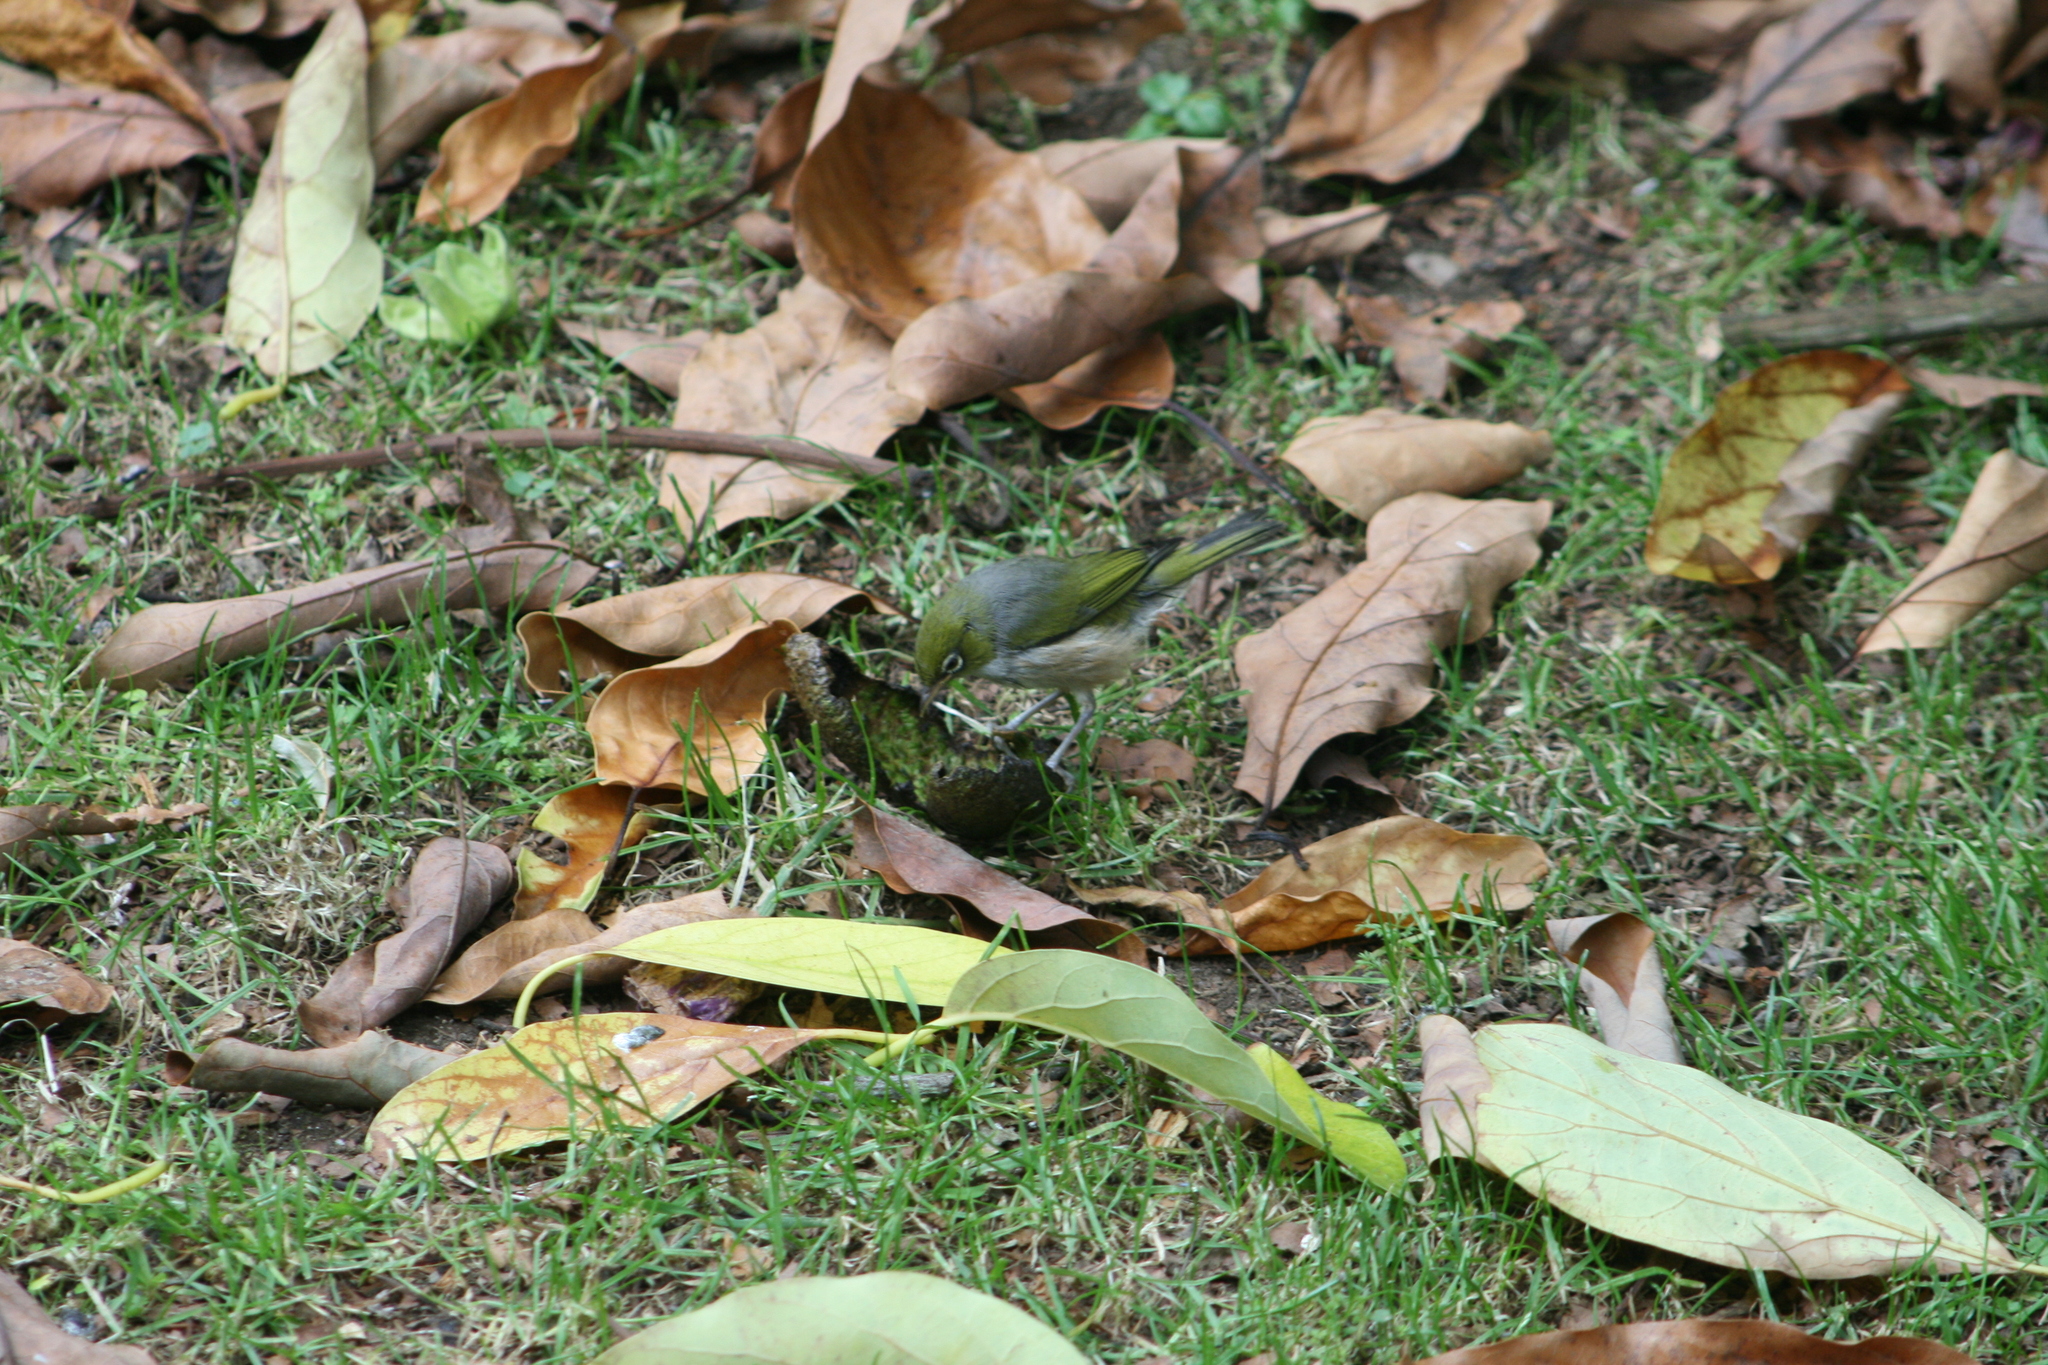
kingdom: Animalia
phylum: Chordata
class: Aves
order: Passeriformes
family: Zosteropidae
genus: Zosterops
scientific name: Zosterops lateralis
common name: Silvereye
